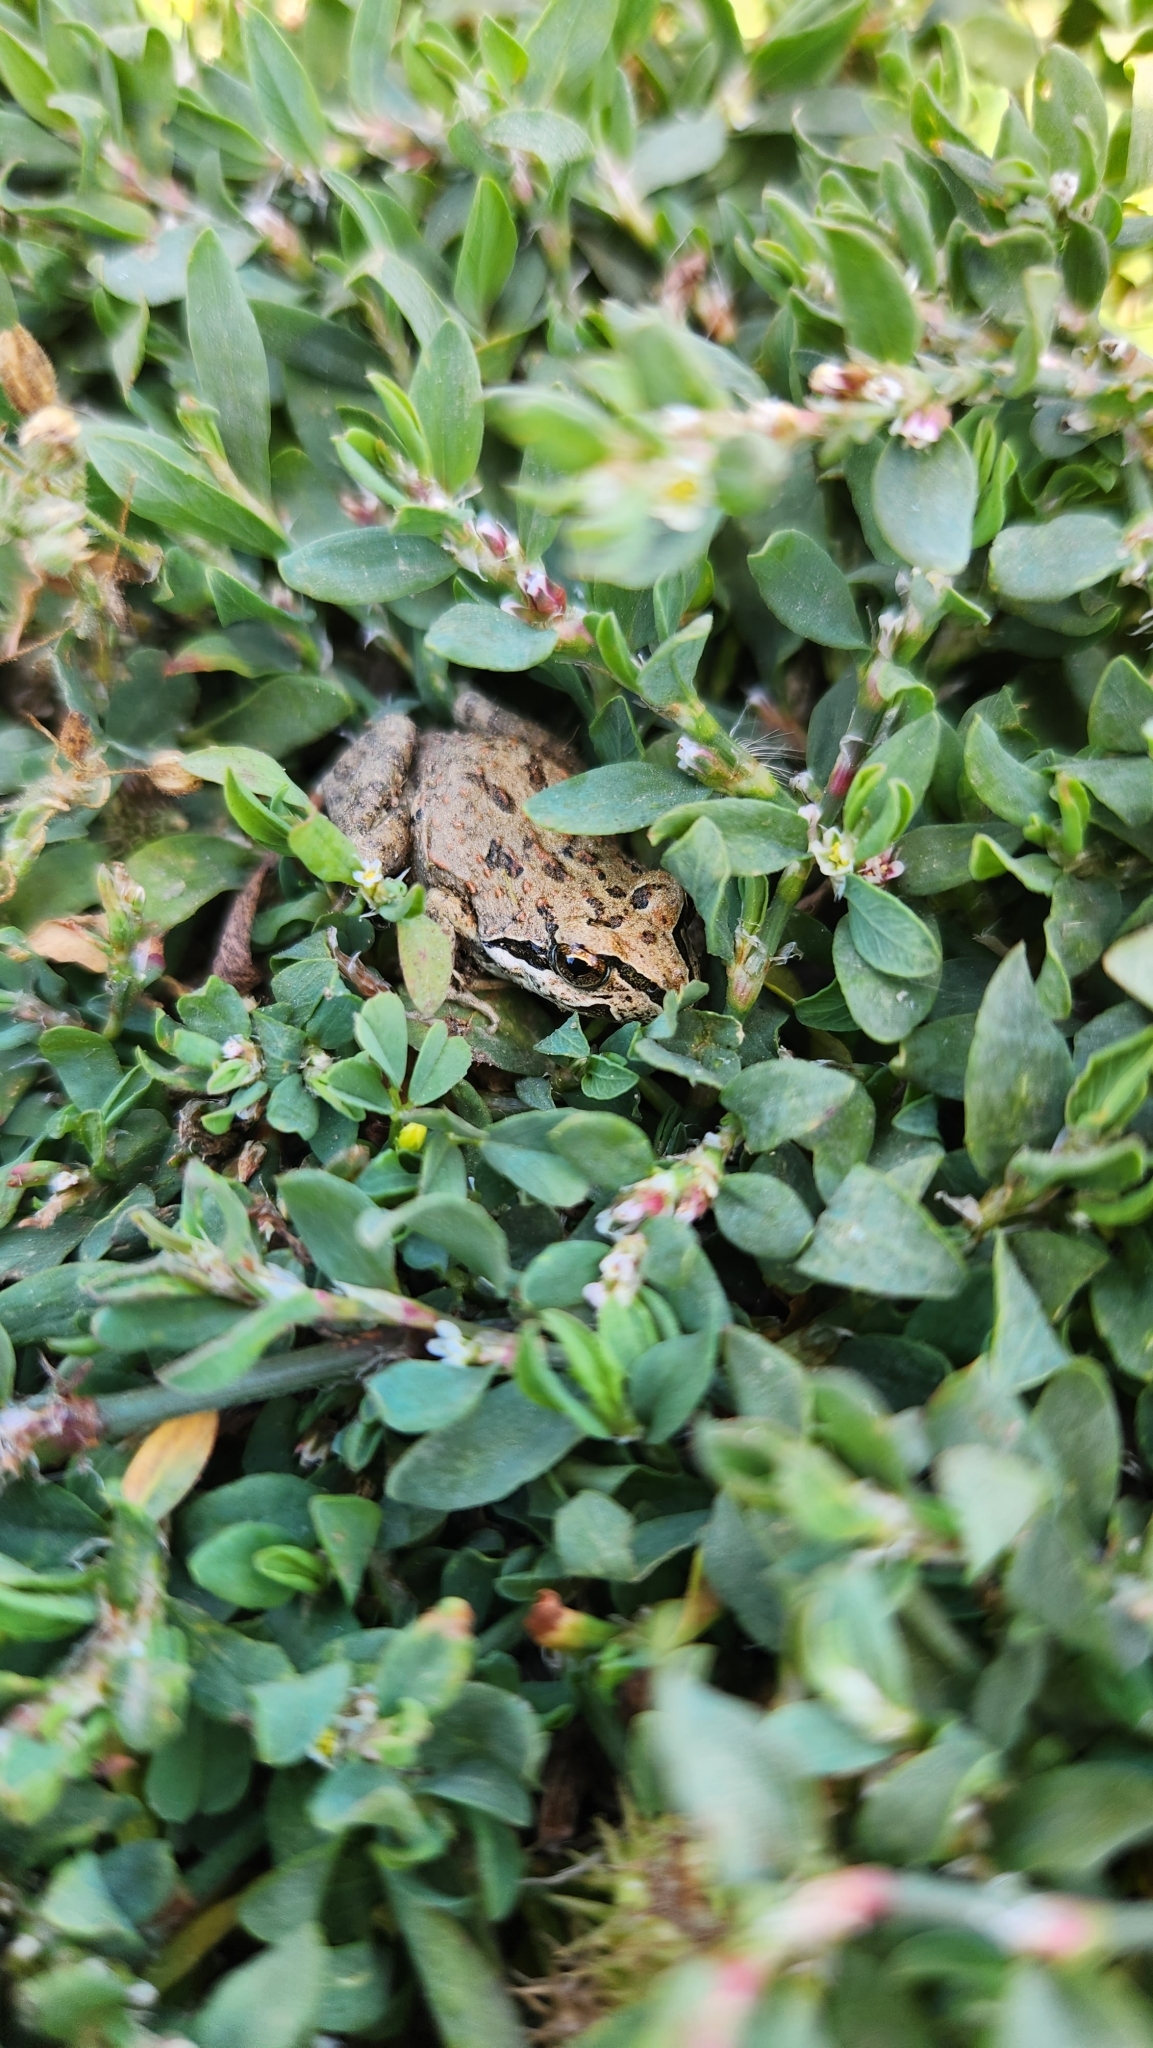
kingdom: Animalia
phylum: Chordata
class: Amphibia
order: Anura
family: Leptodactylidae
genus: Pleurodema
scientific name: Pleurodema thaul
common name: Chile four-eyed frog
